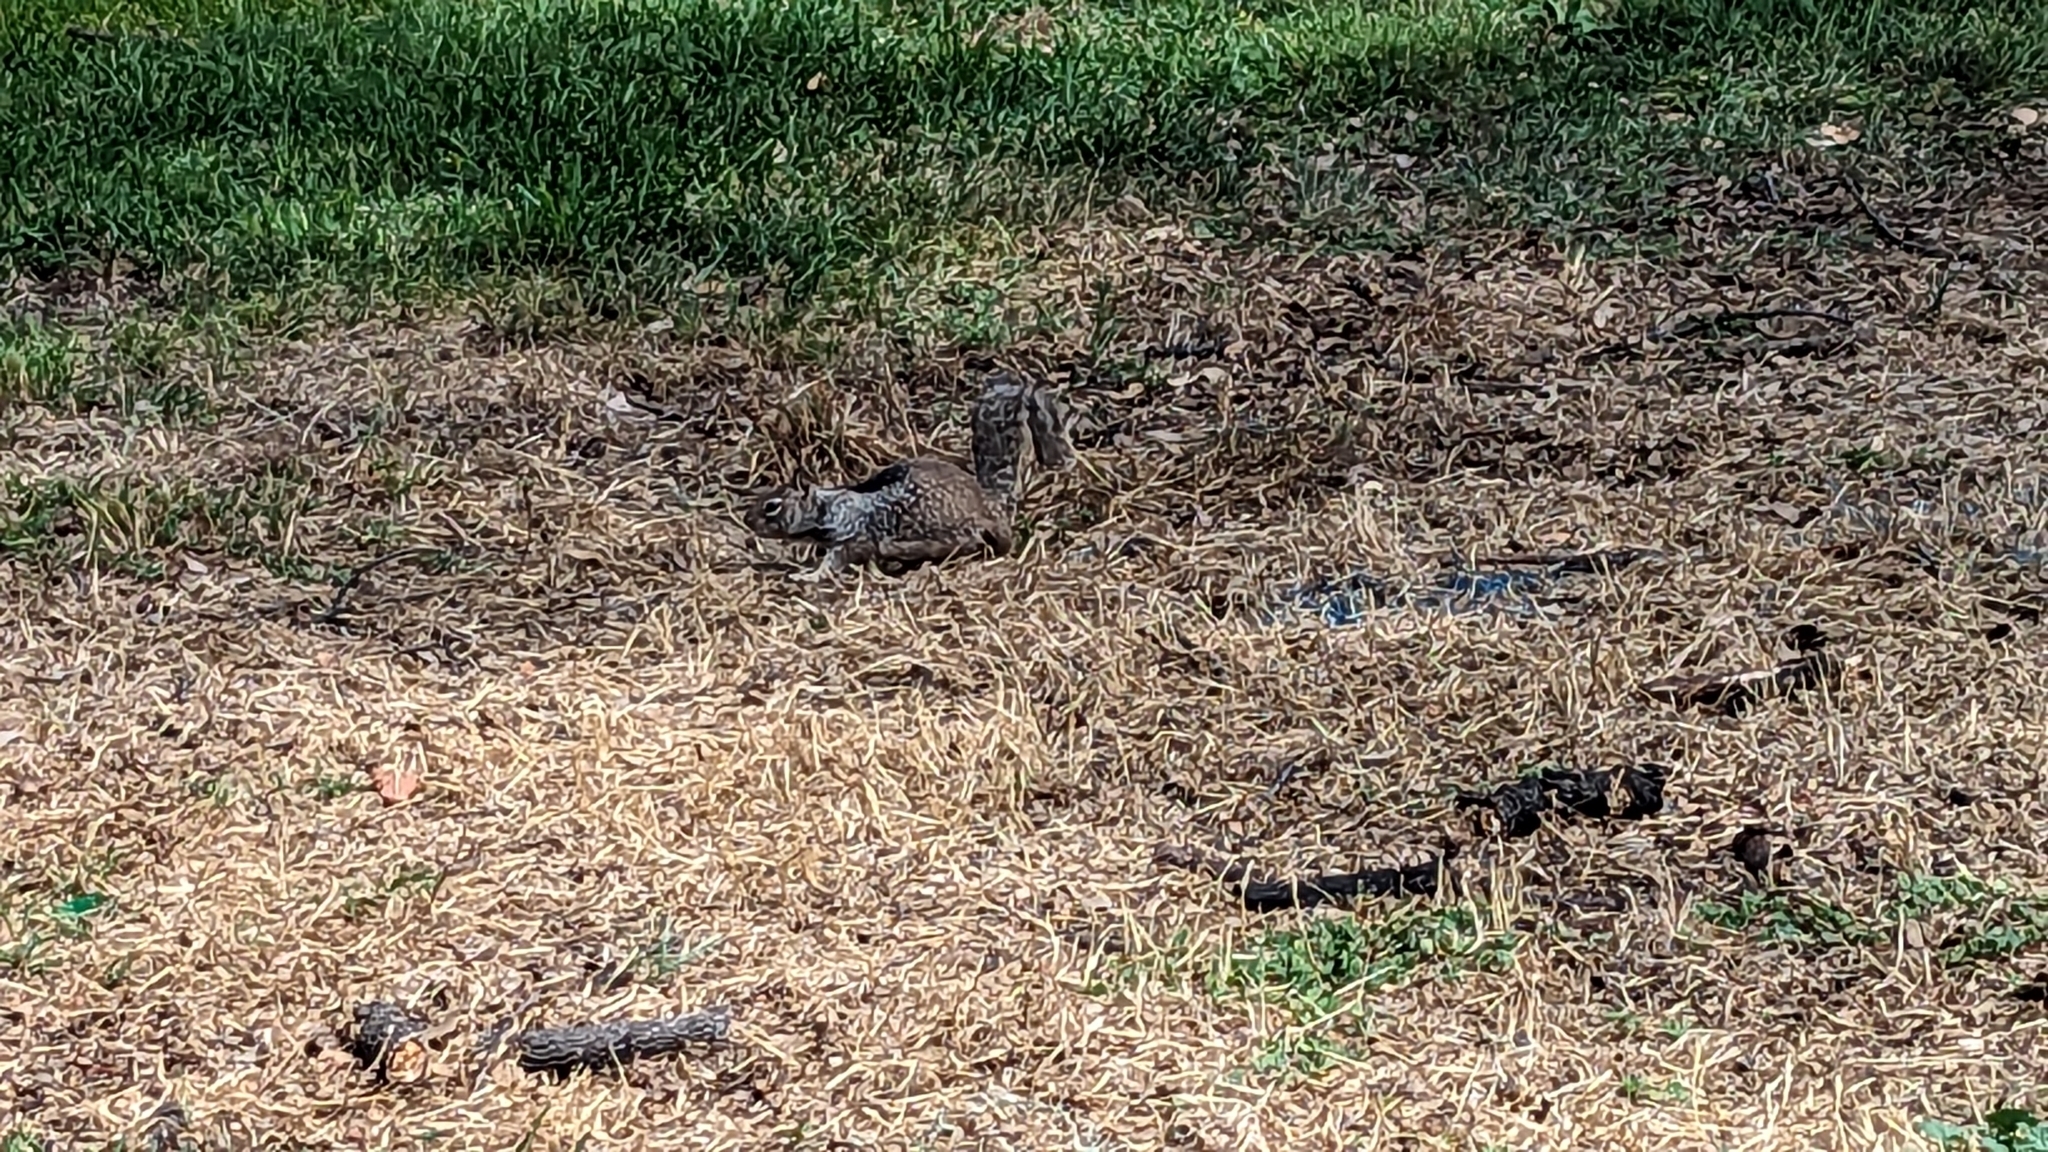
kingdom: Animalia
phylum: Chordata
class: Mammalia
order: Rodentia
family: Sciuridae
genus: Otospermophilus
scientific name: Otospermophilus beecheyi
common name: California ground squirrel
